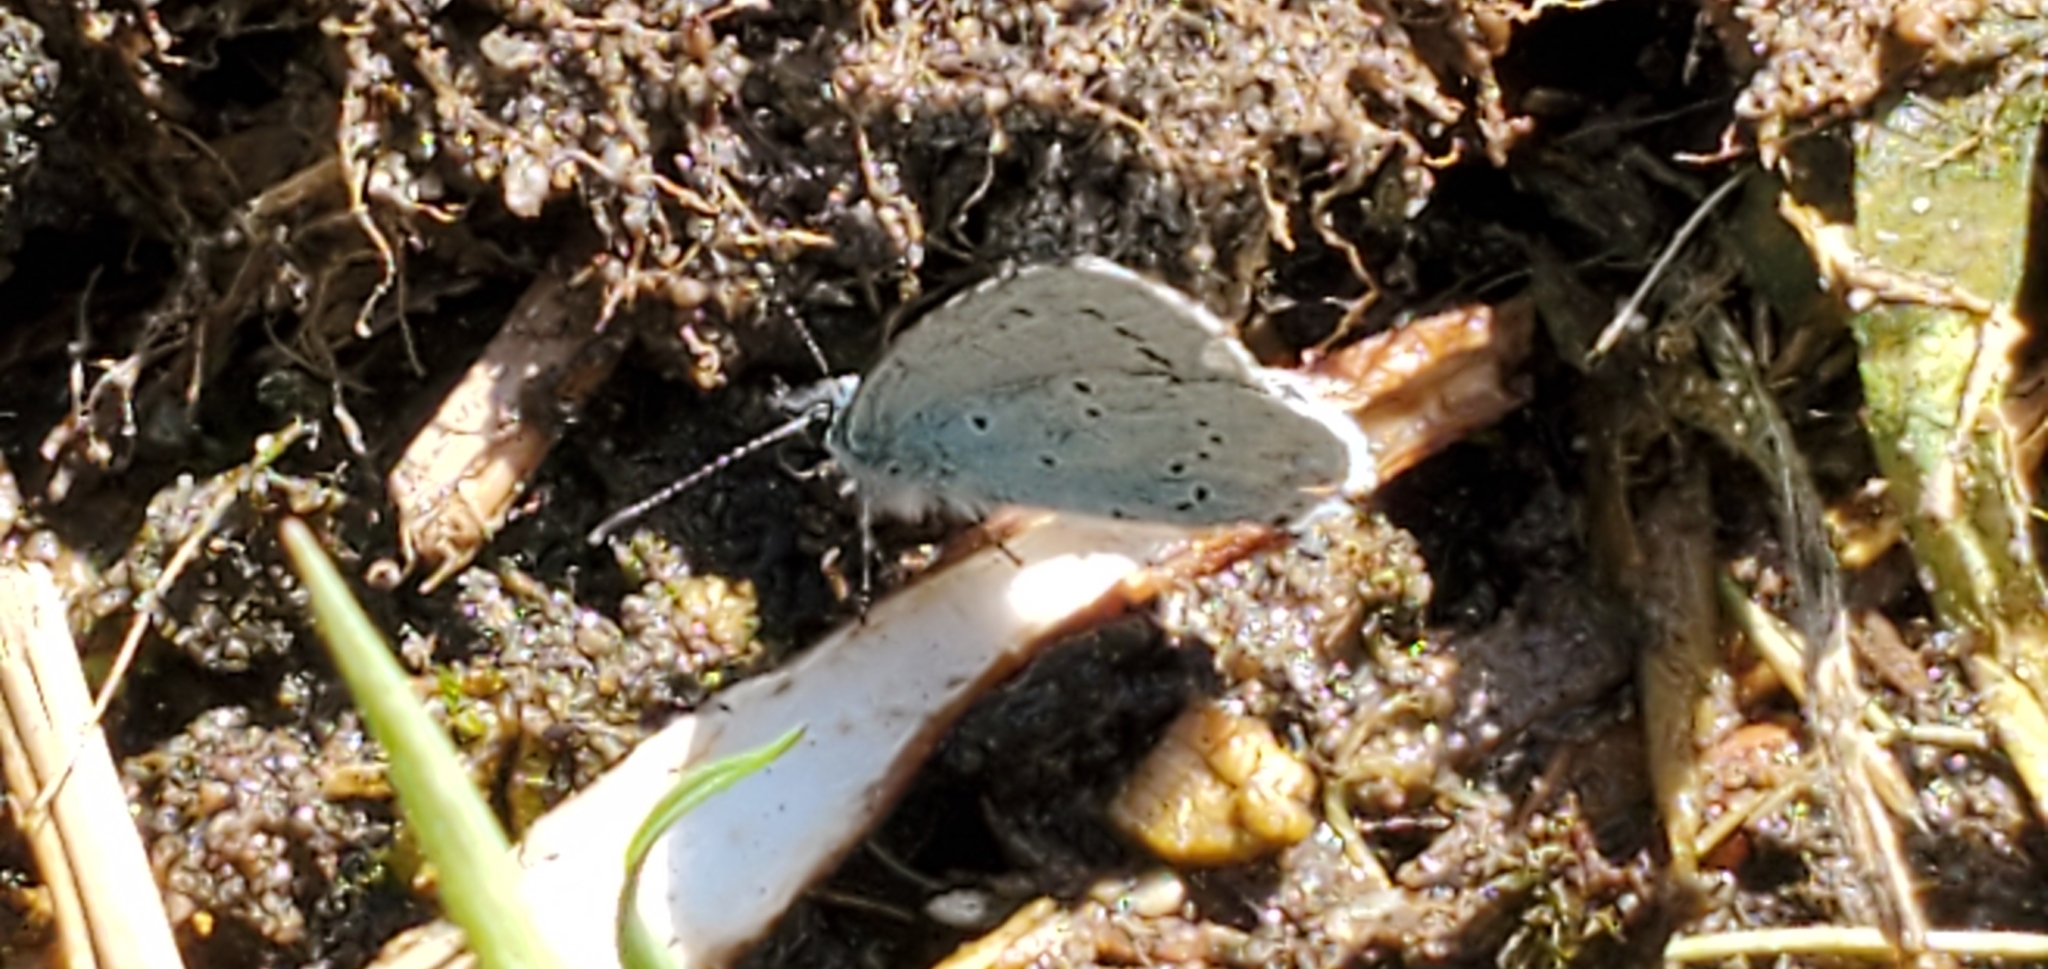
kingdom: Animalia
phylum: Arthropoda
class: Insecta
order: Lepidoptera
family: Lycaenidae
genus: Celastrina
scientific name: Celastrina argiolus
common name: Holly blue
